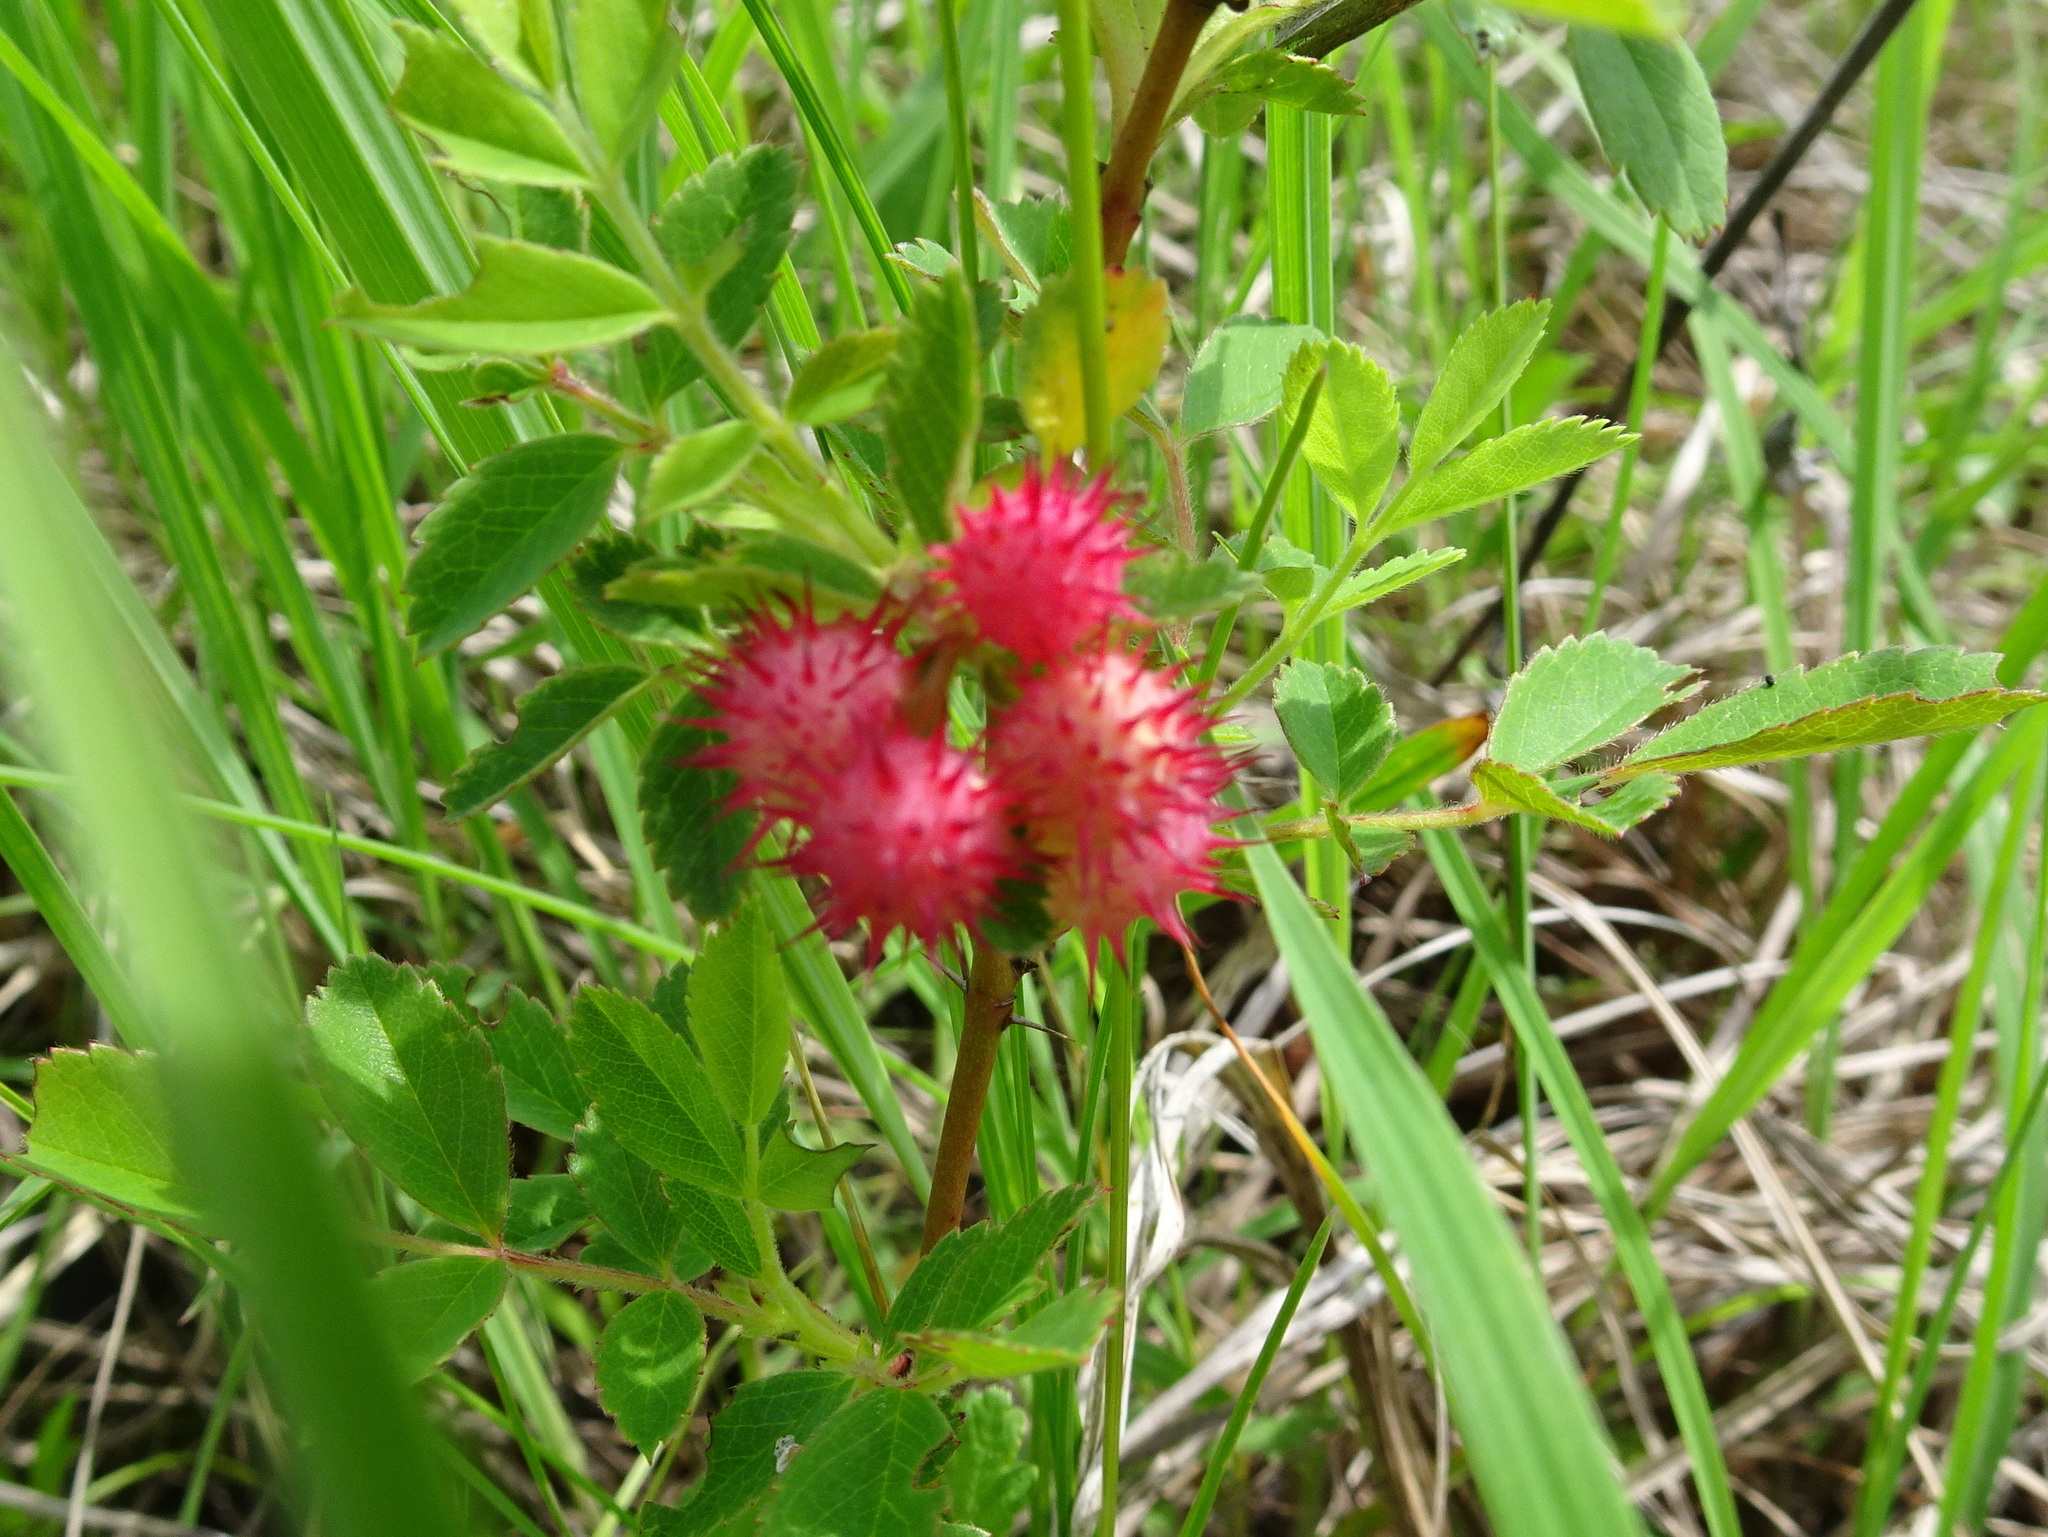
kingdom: Animalia
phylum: Arthropoda
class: Insecta
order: Hymenoptera
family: Cynipidae
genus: Diplolepis
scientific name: Diplolepis polita
